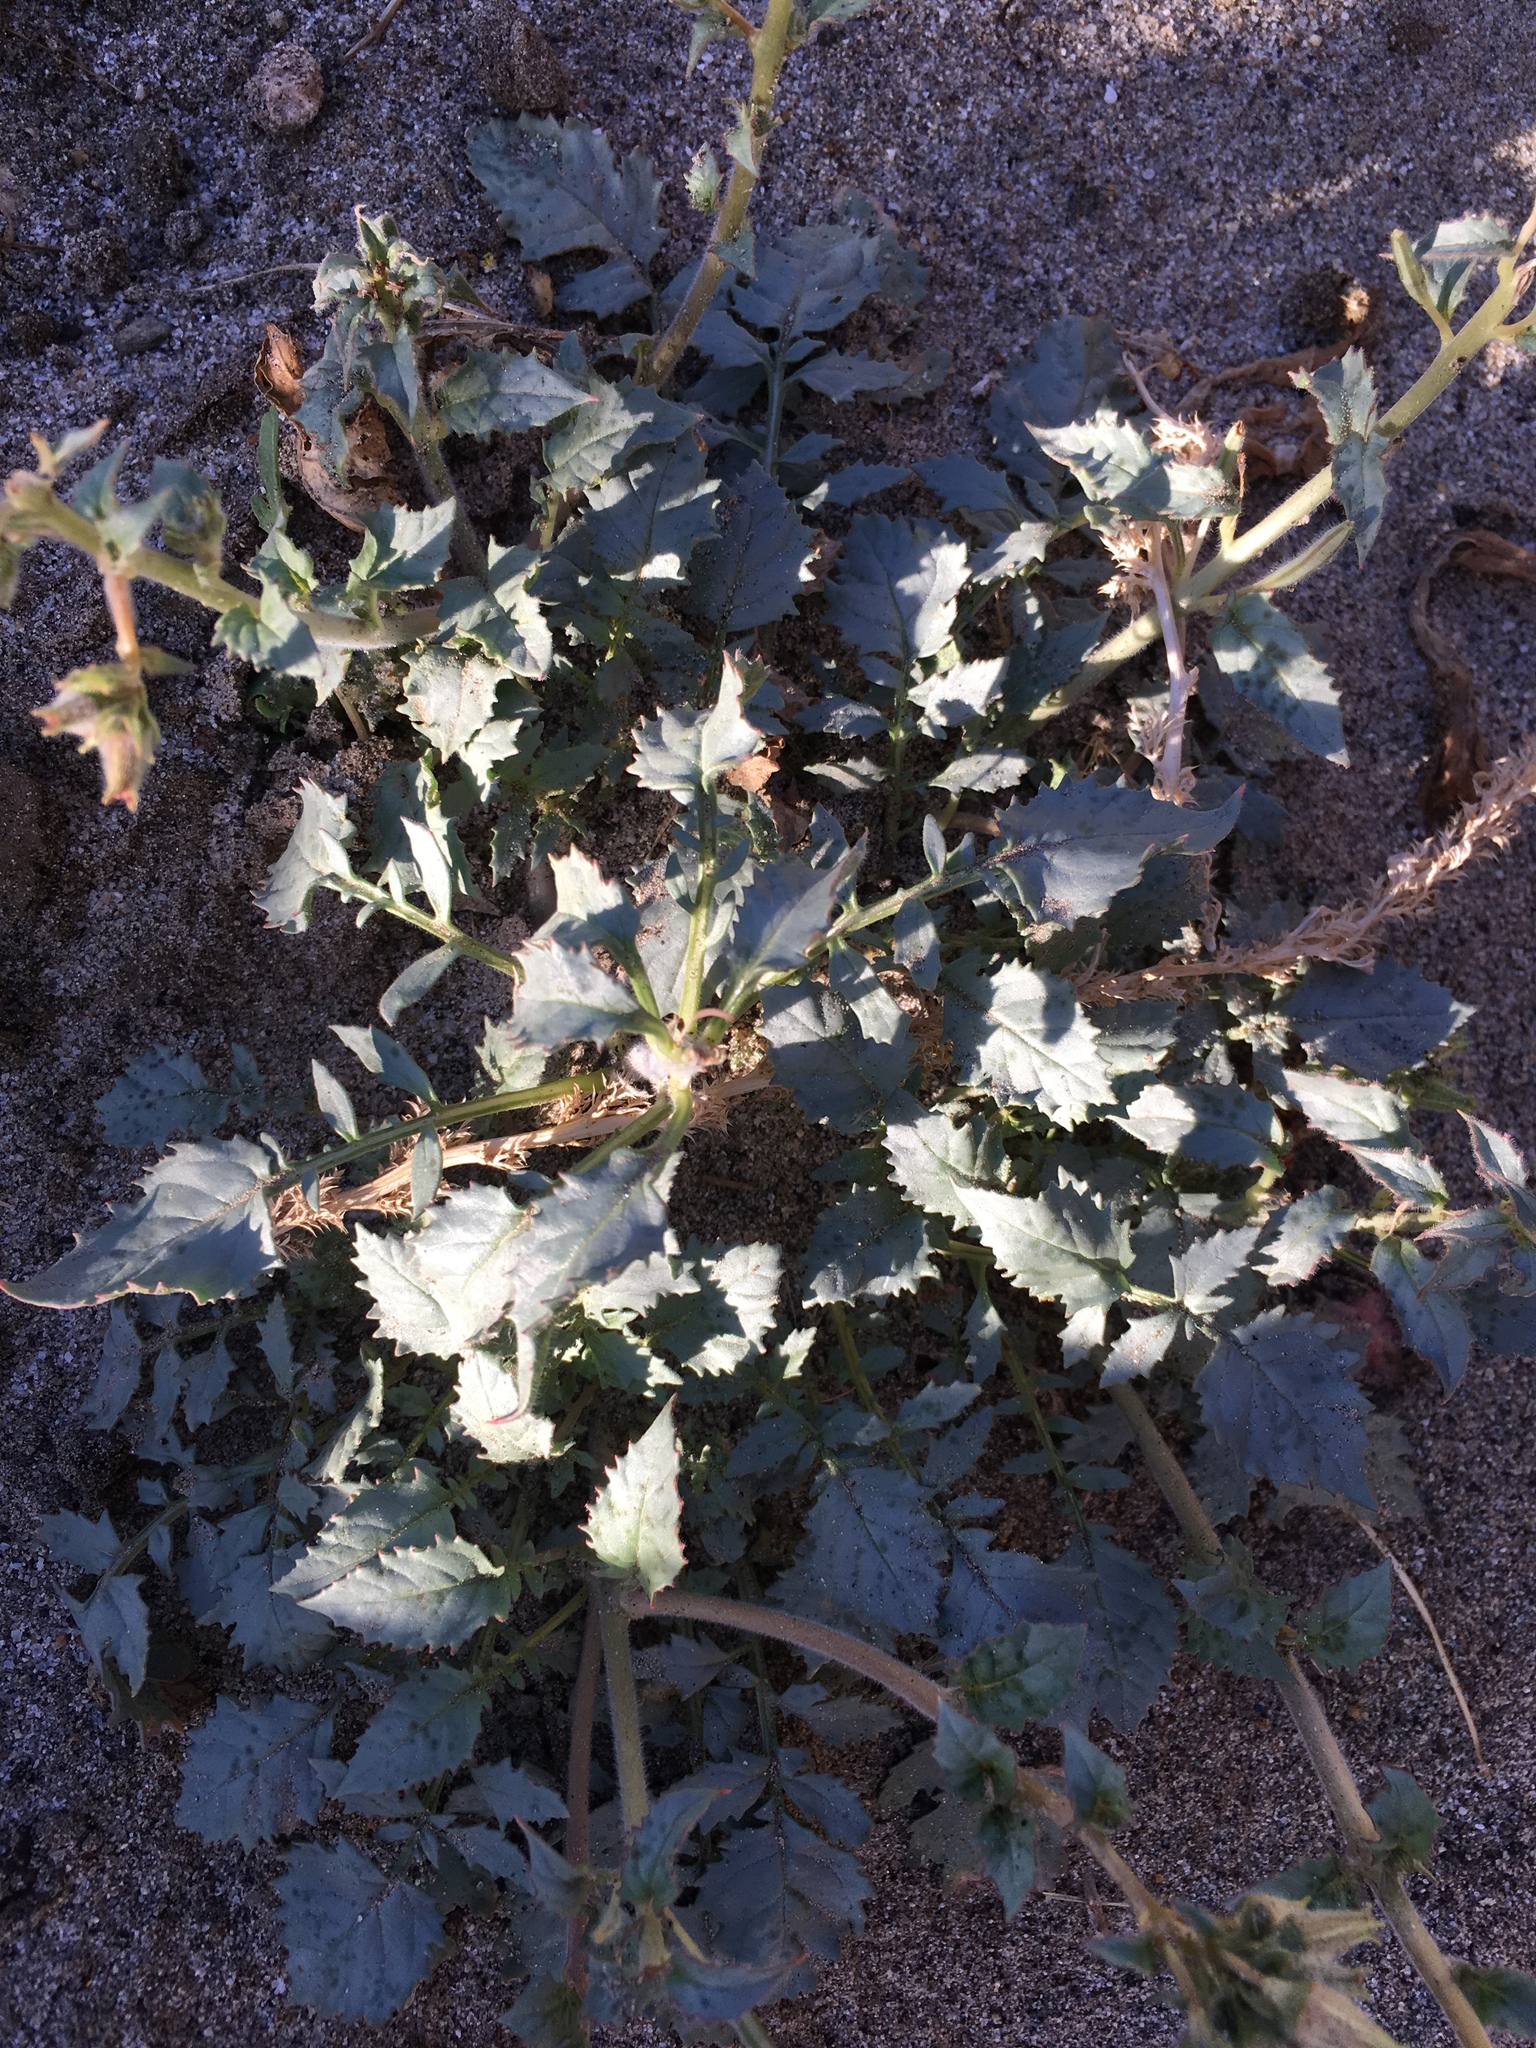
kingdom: Plantae
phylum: Tracheophyta
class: Magnoliopsida
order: Myrtales
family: Onagraceae
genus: Chylismia
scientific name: Chylismia claviformis
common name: Browneyes
